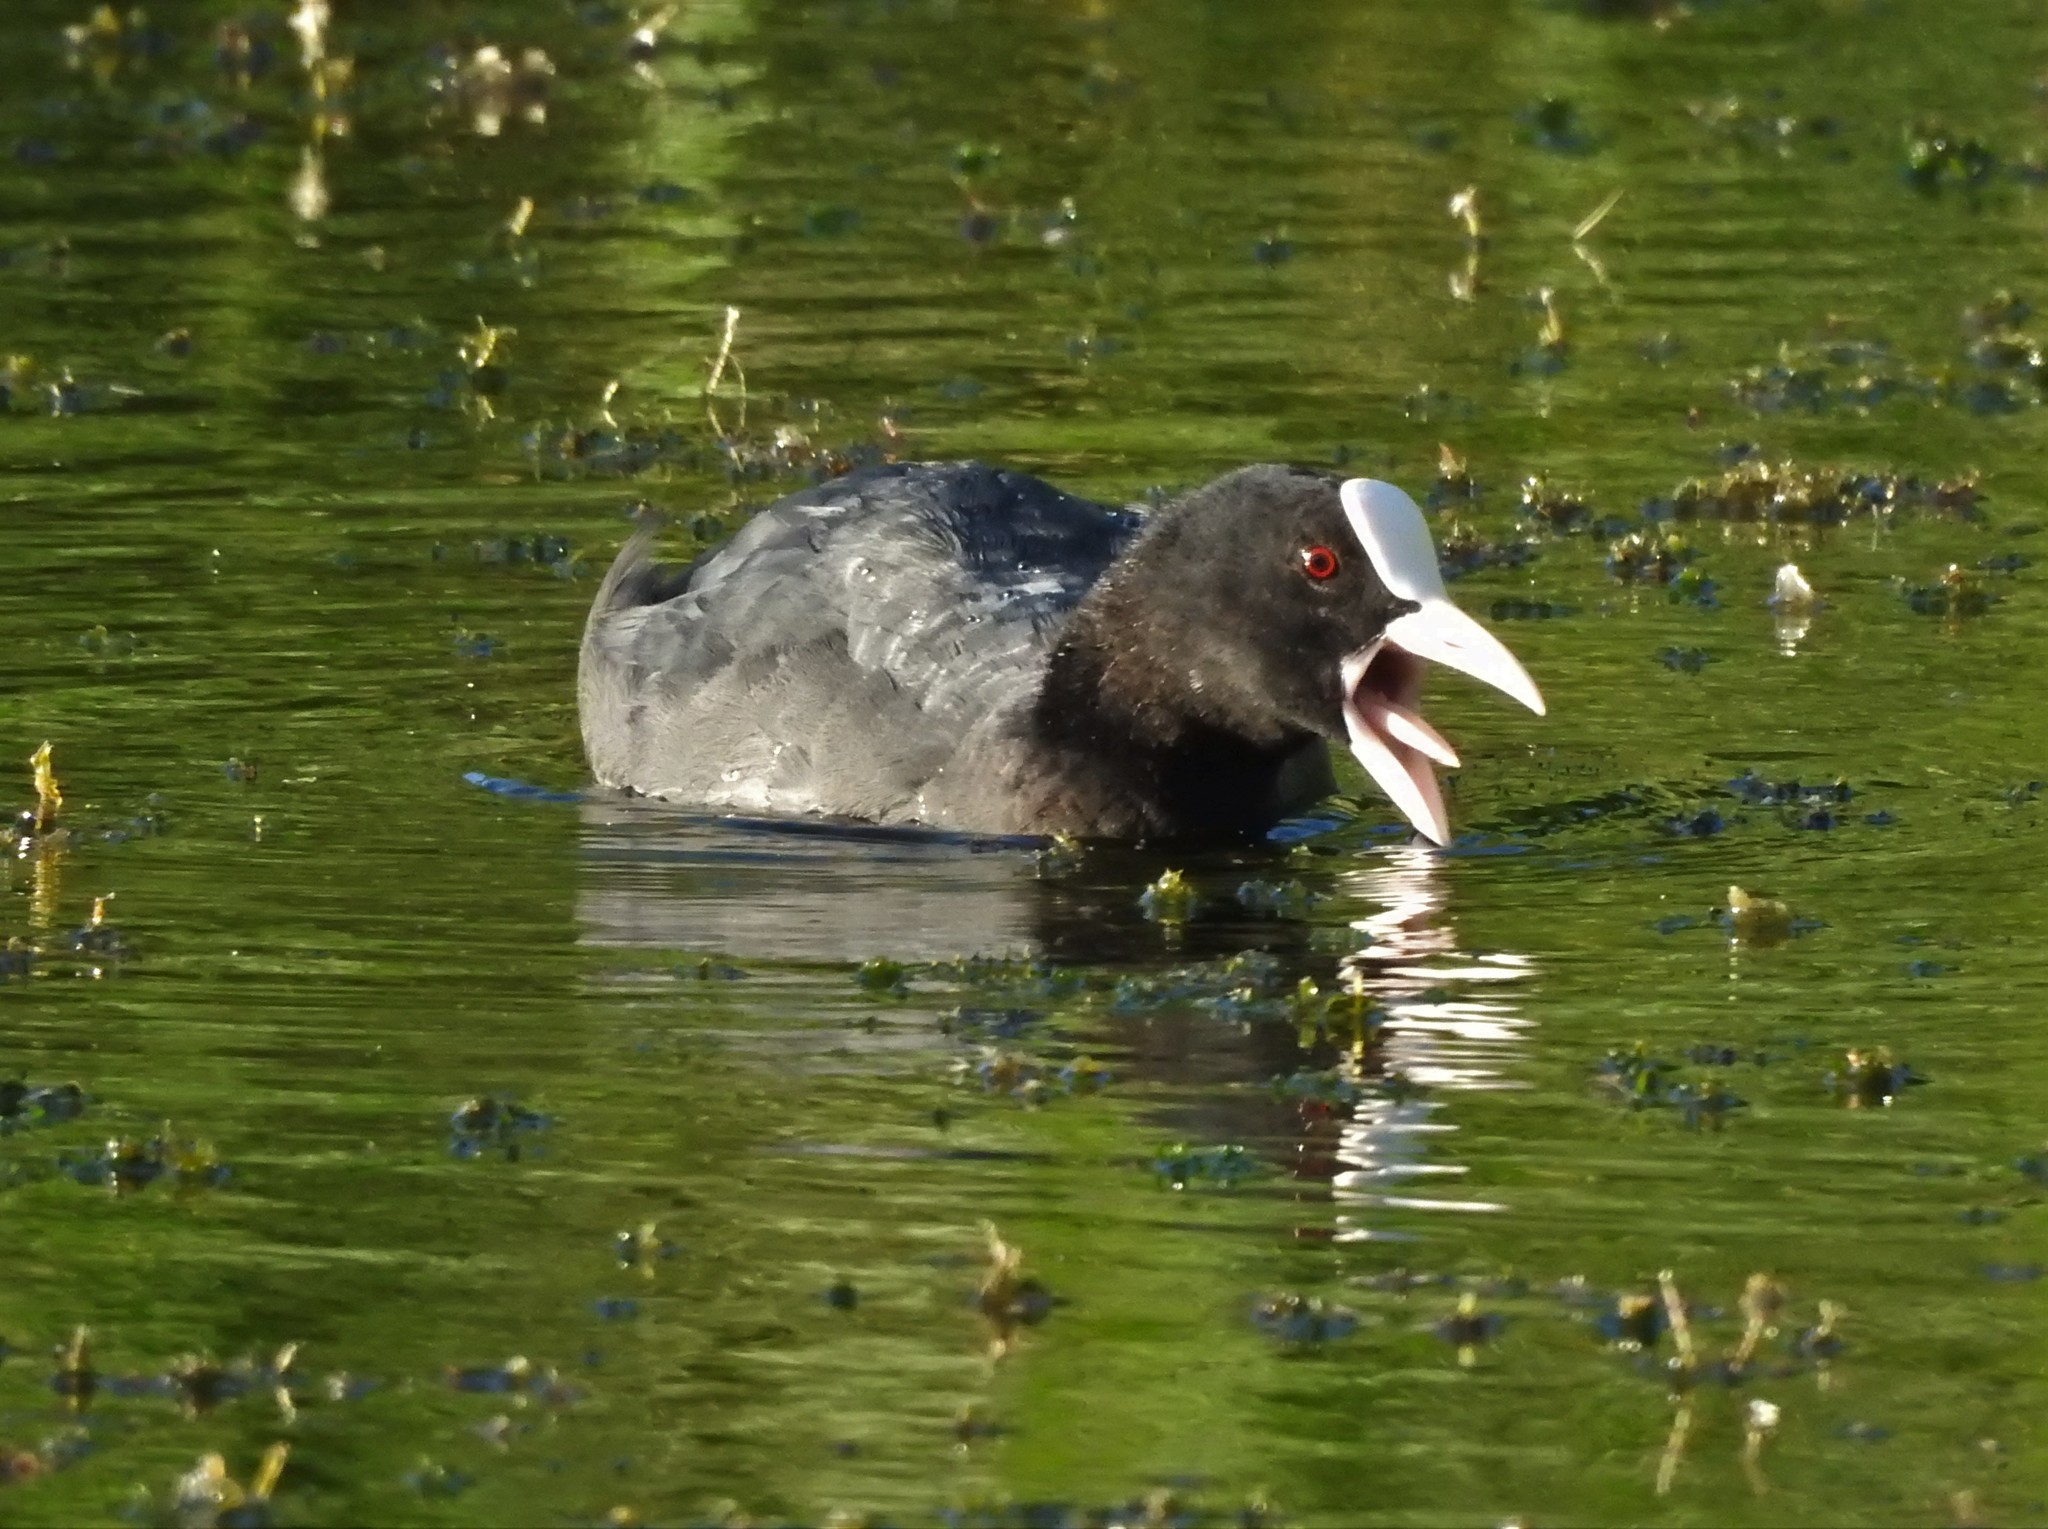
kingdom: Animalia
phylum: Chordata
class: Aves
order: Gruiformes
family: Rallidae
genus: Fulica
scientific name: Fulica atra
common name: Eurasian coot
